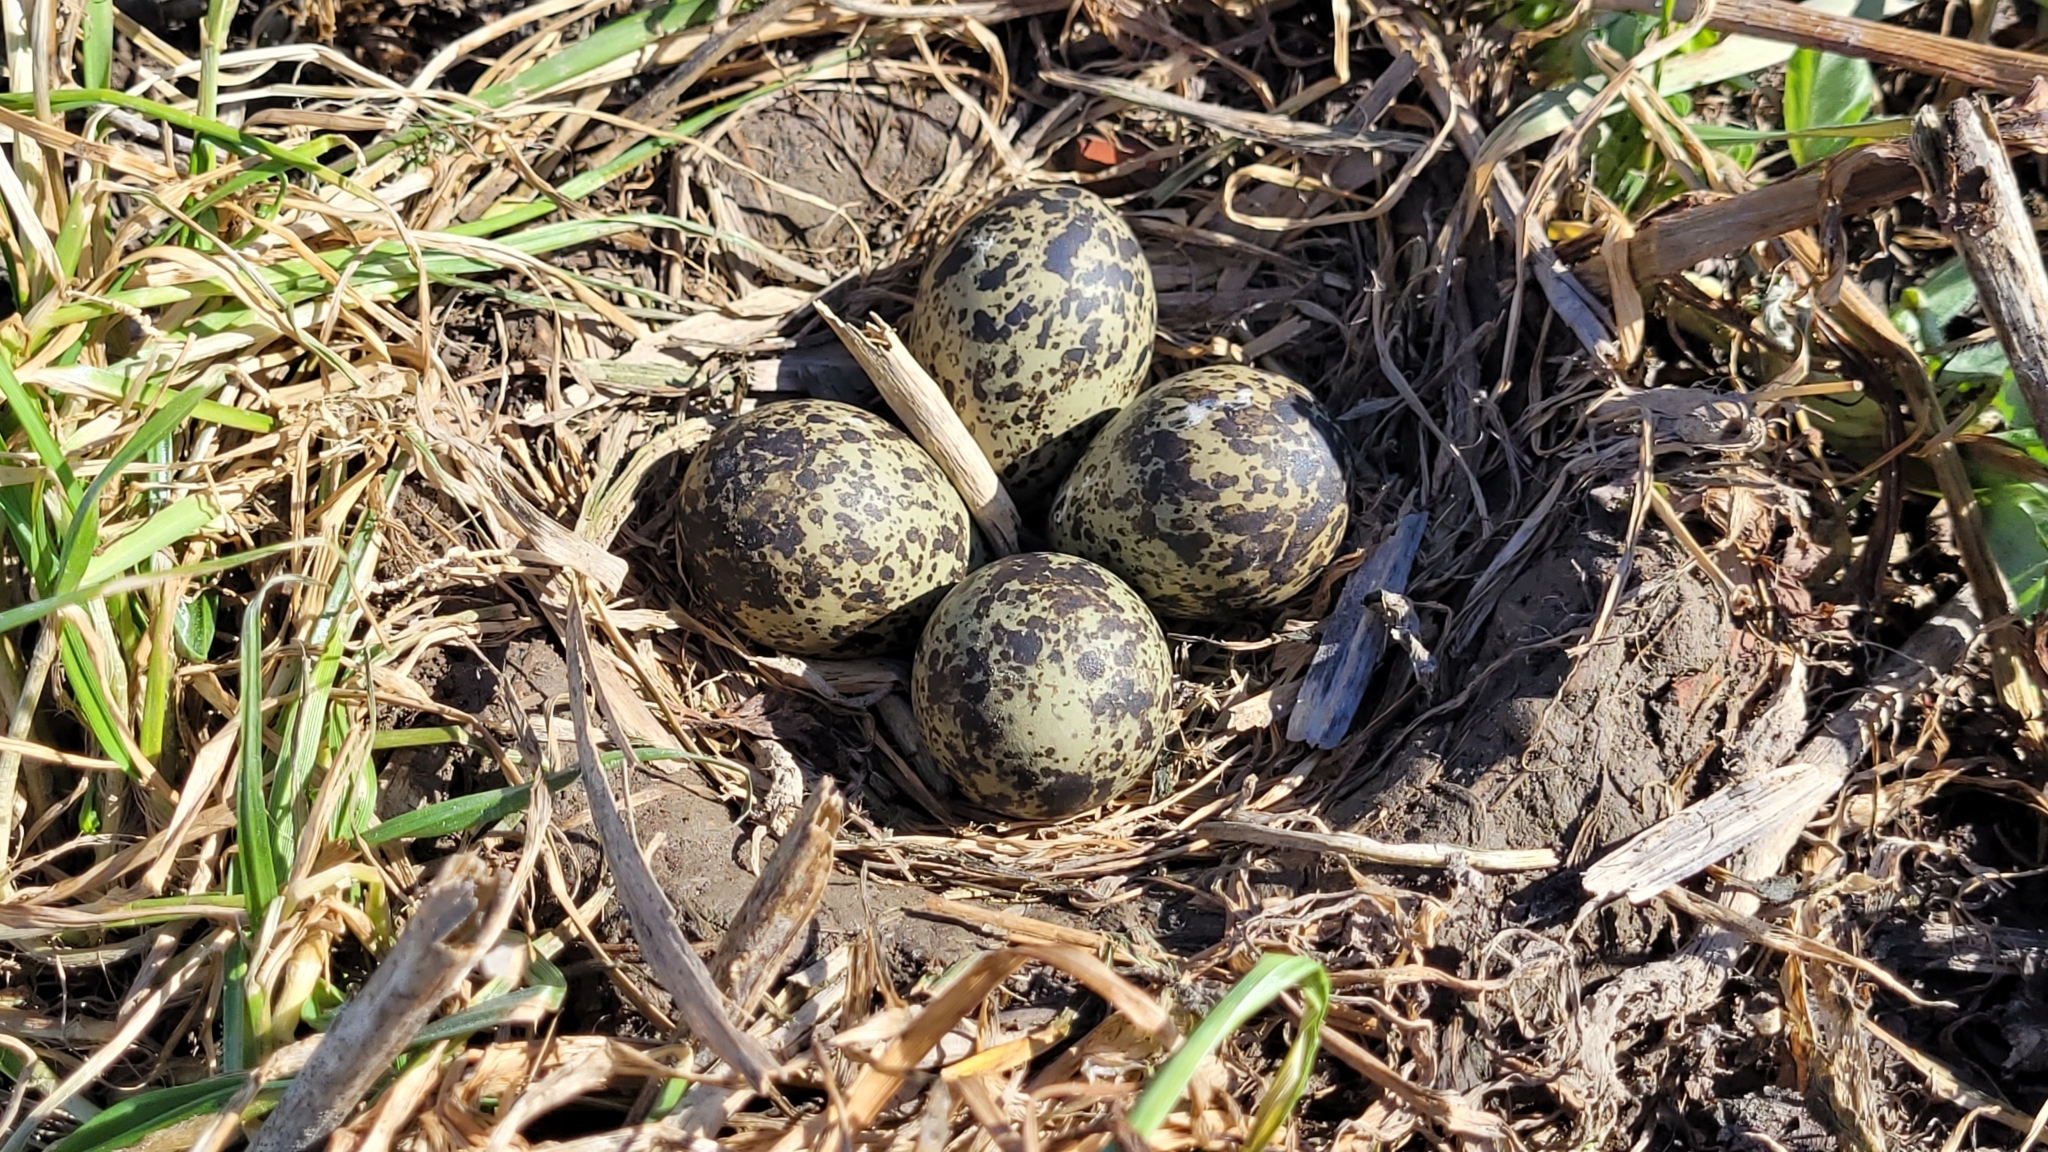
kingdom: Animalia
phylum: Chordata
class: Aves
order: Charadriiformes
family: Charadriidae
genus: Vanellus
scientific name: Vanellus vanellus
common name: Northern lapwing
